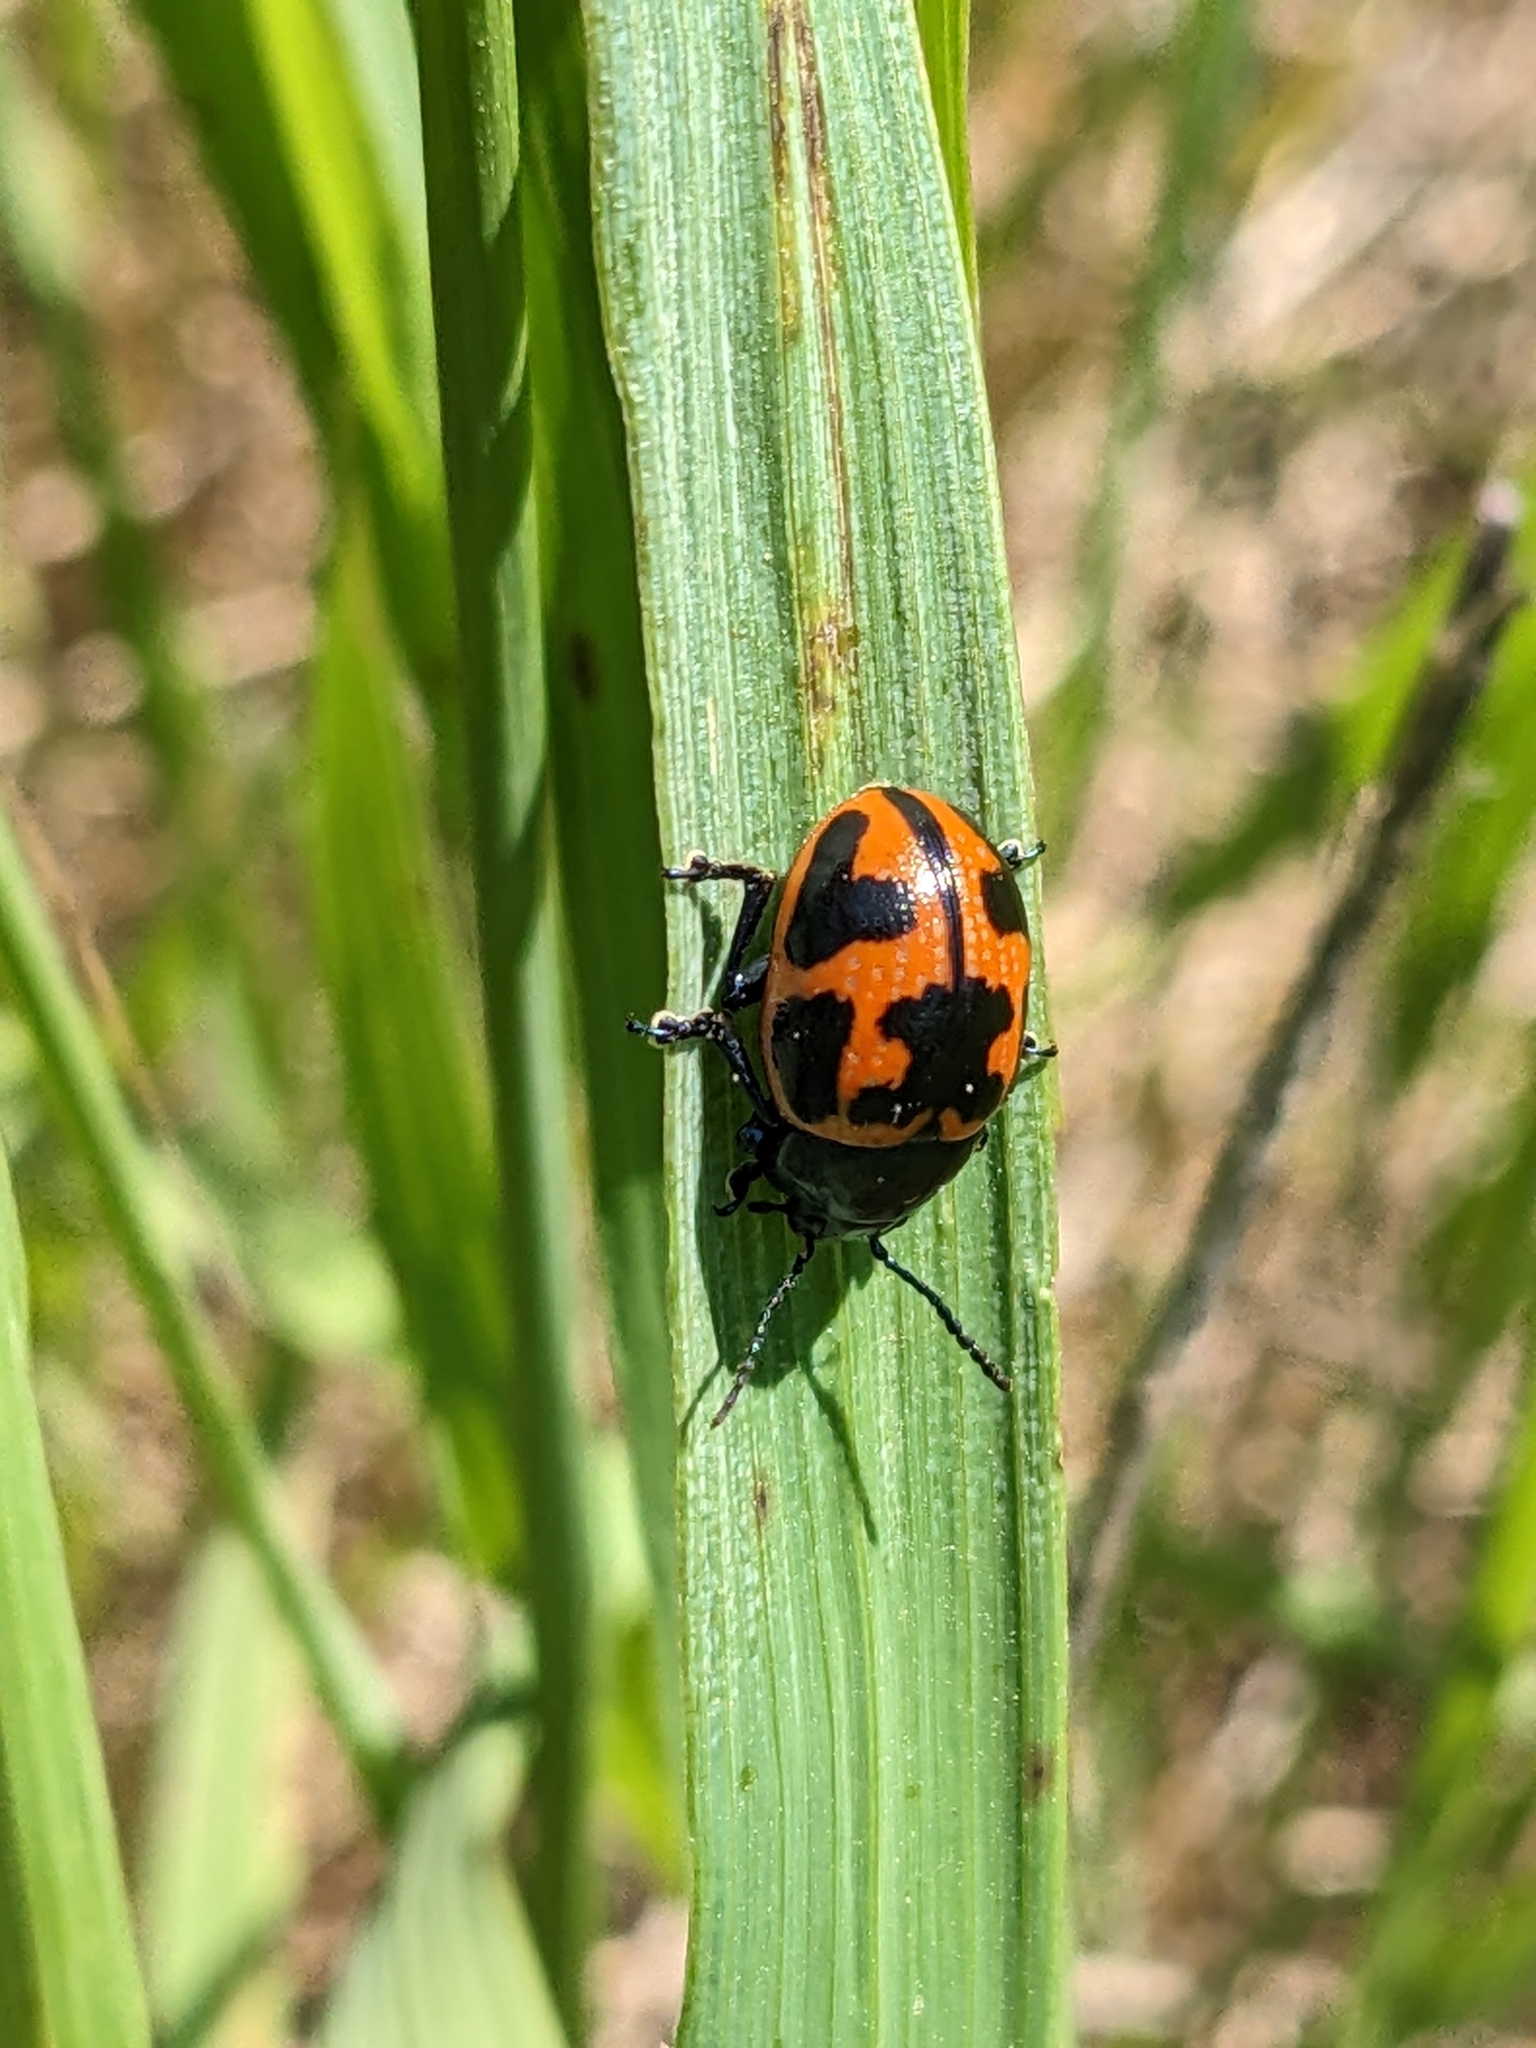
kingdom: Animalia
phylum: Arthropoda
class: Insecta
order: Coleoptera
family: Chrysomelidae
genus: Labidomera
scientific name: Labidomera clivicollis
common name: Swamp milkweed leaf beetle
